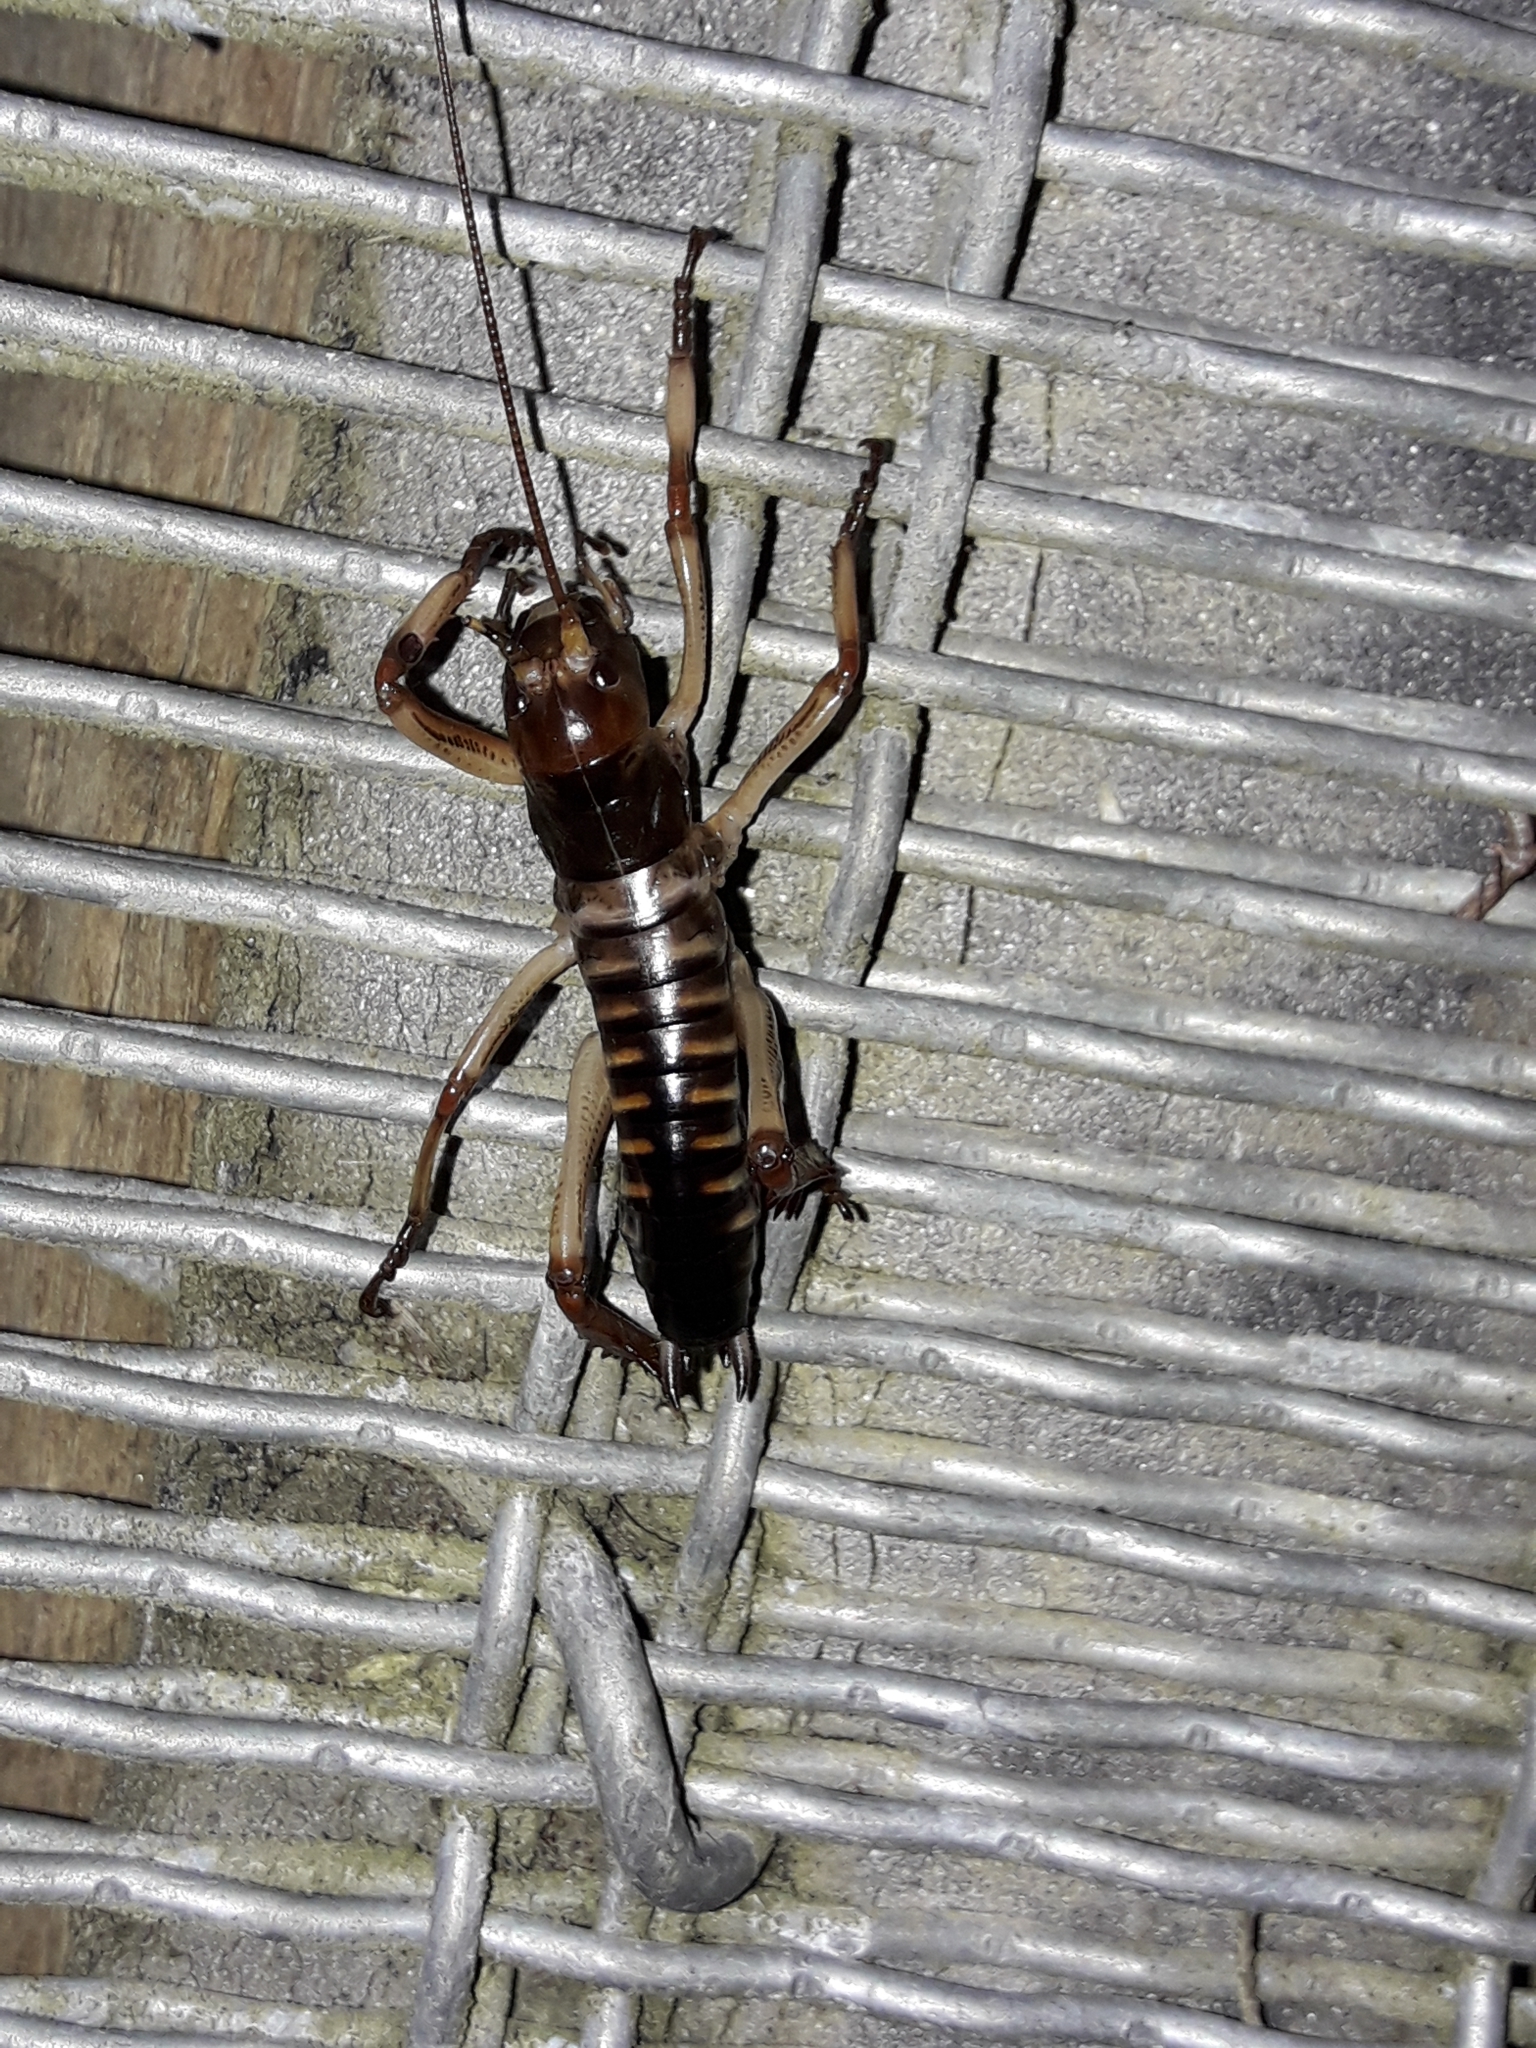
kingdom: Animalia
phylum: Arthropoda
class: Insecta
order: Orthoptera
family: Anostostomatidae
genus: Hemideina
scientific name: Hemideina crassidens
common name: Wellington tree weta
